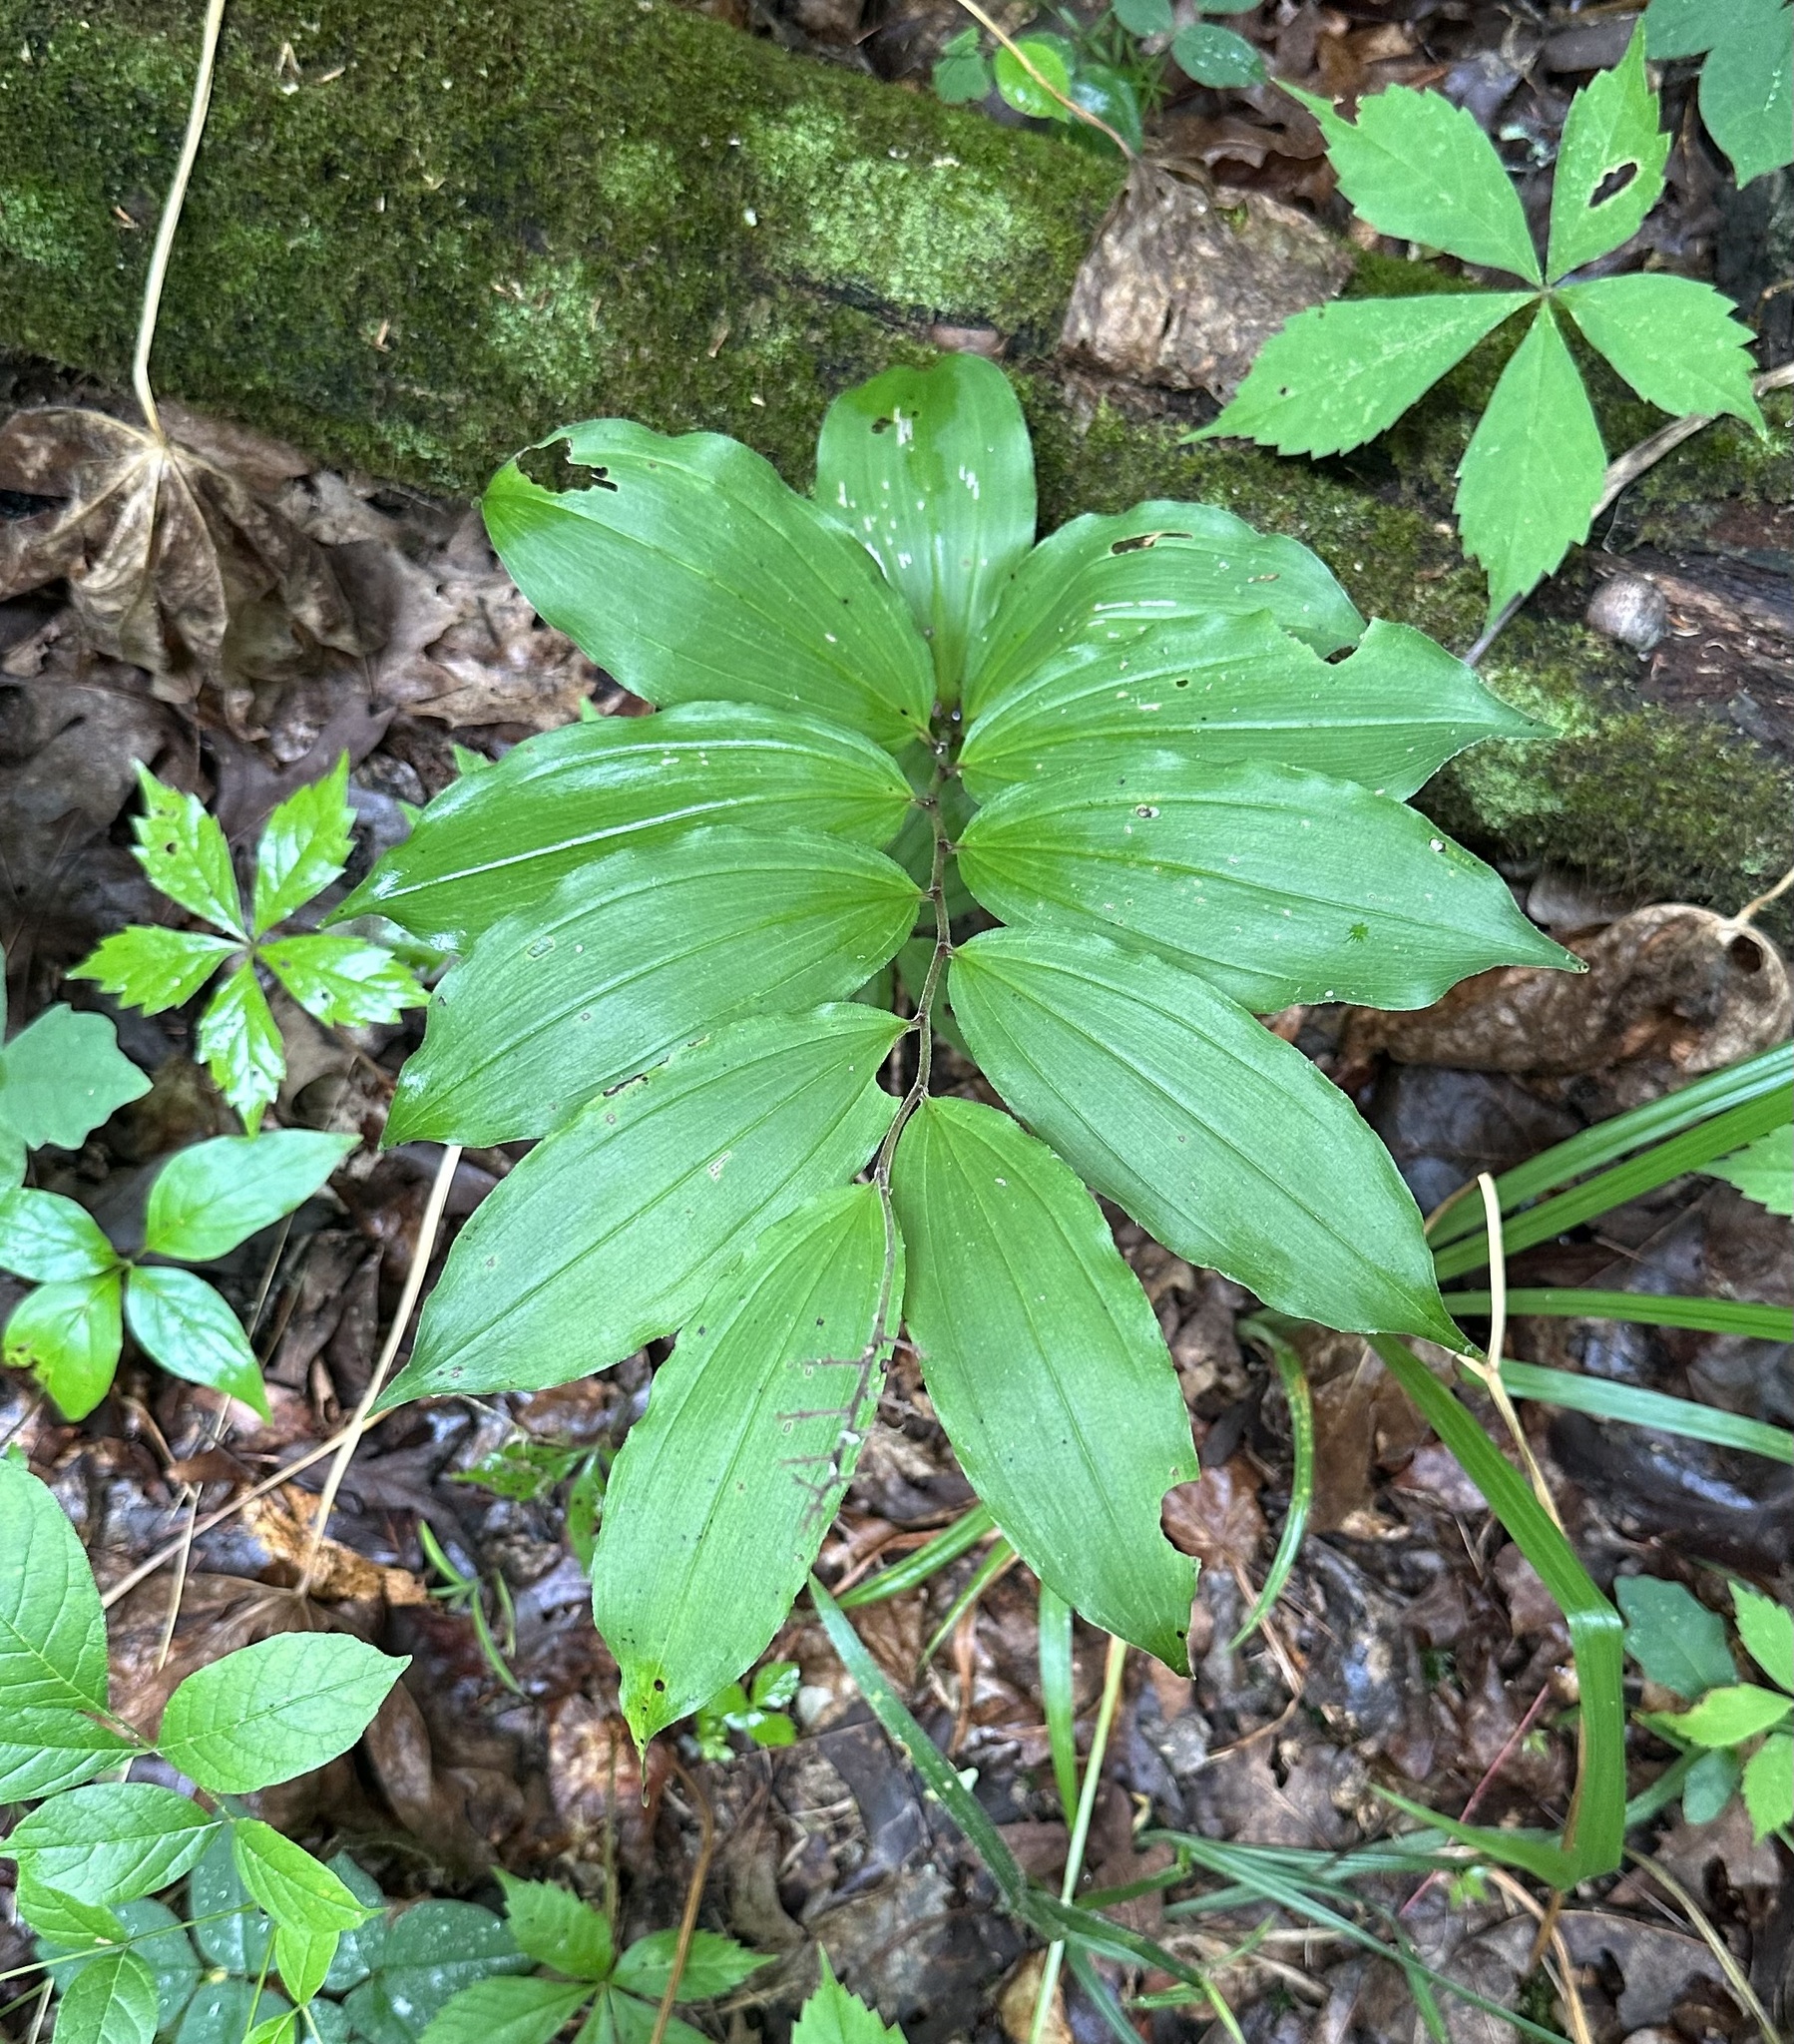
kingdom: Plantae
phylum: Tracheophyta
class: Liliopsida
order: Asparagales
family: Asparagaceae
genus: Maianthemum
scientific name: Maianthemum racemosum
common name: False spikenard
